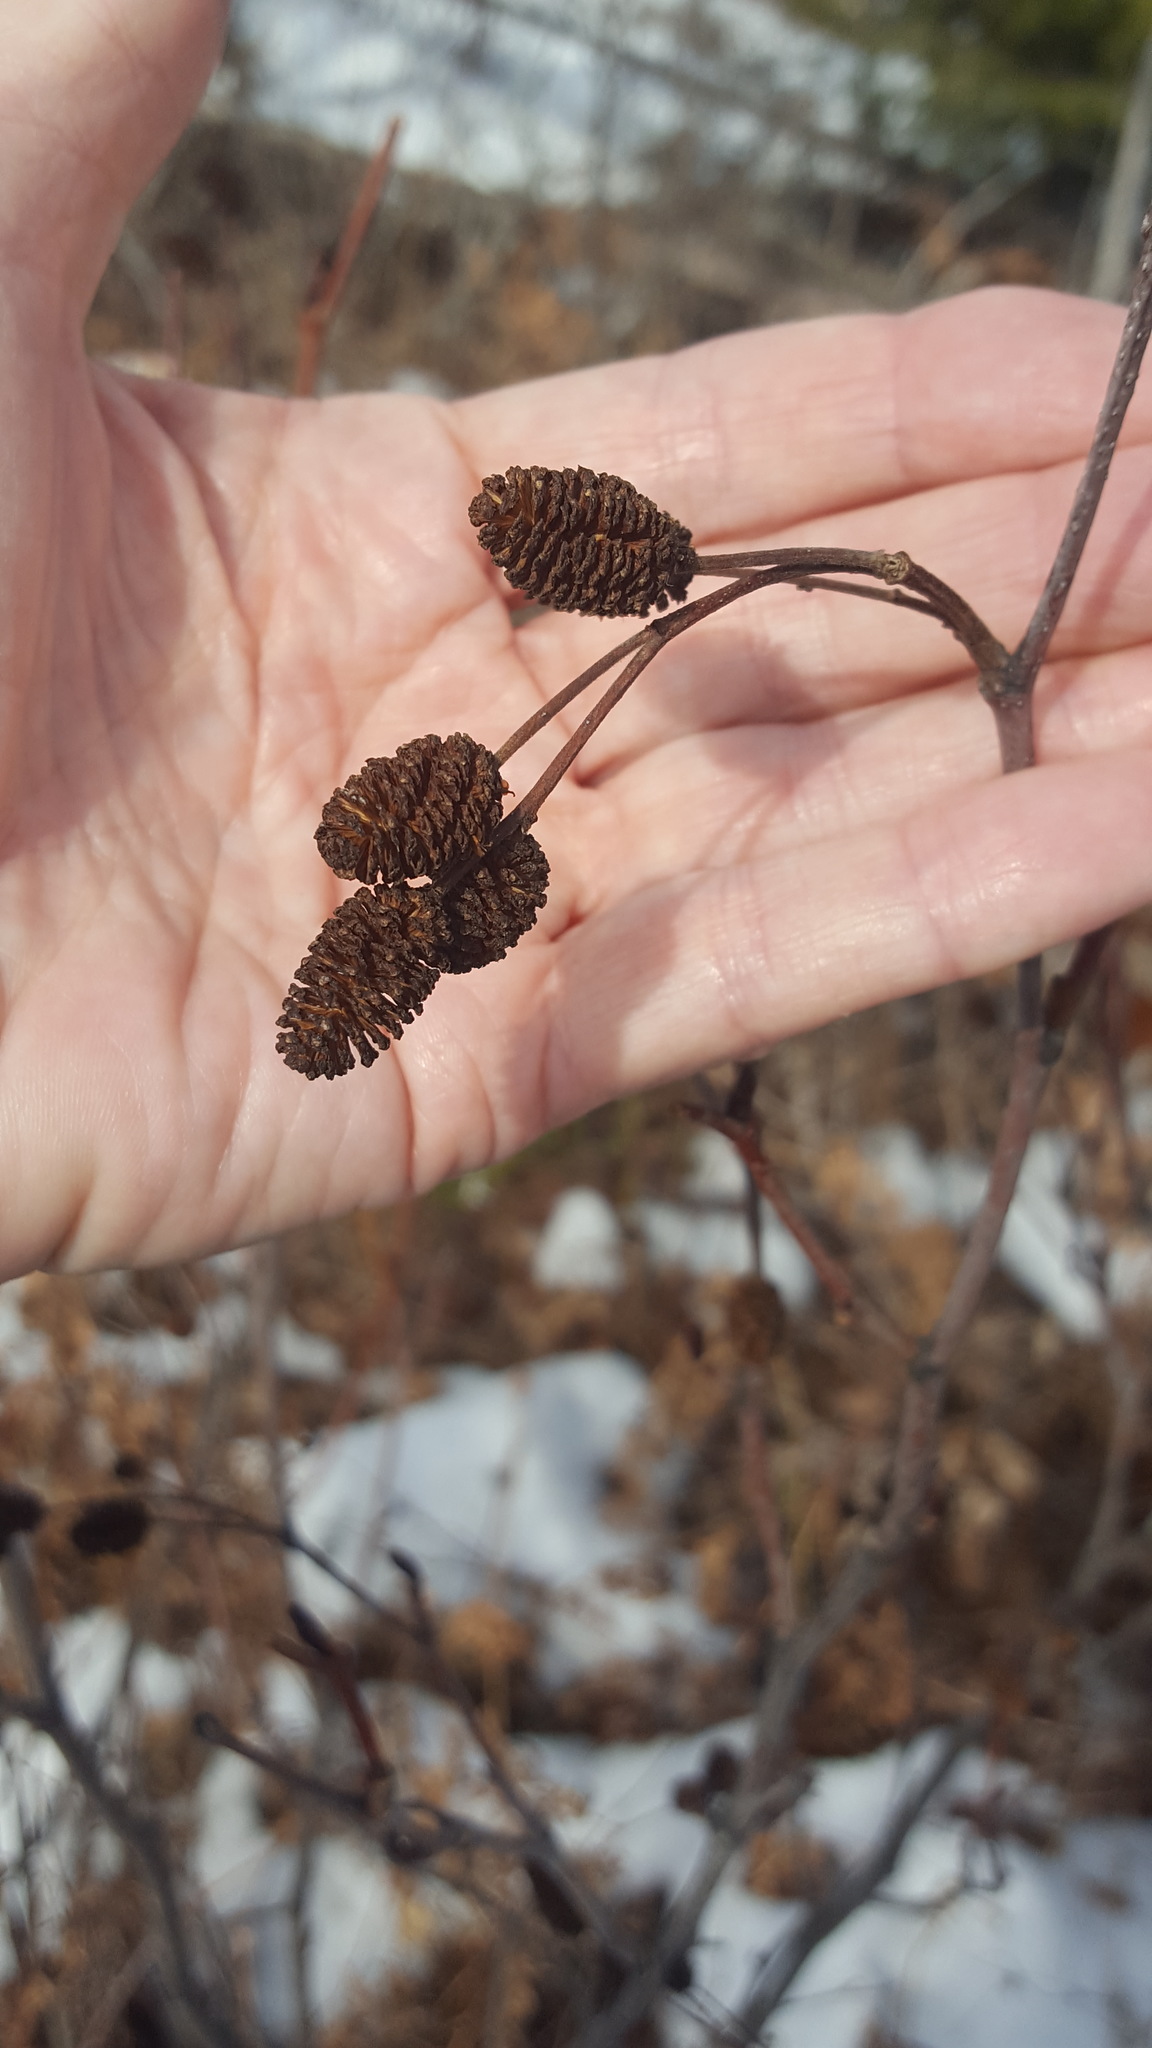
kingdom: Plantae
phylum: Tracheophyta
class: Magnoliopsida
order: Fagales
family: Betulaceae
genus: Alnus
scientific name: Alnus alnobetula
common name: Green alder
